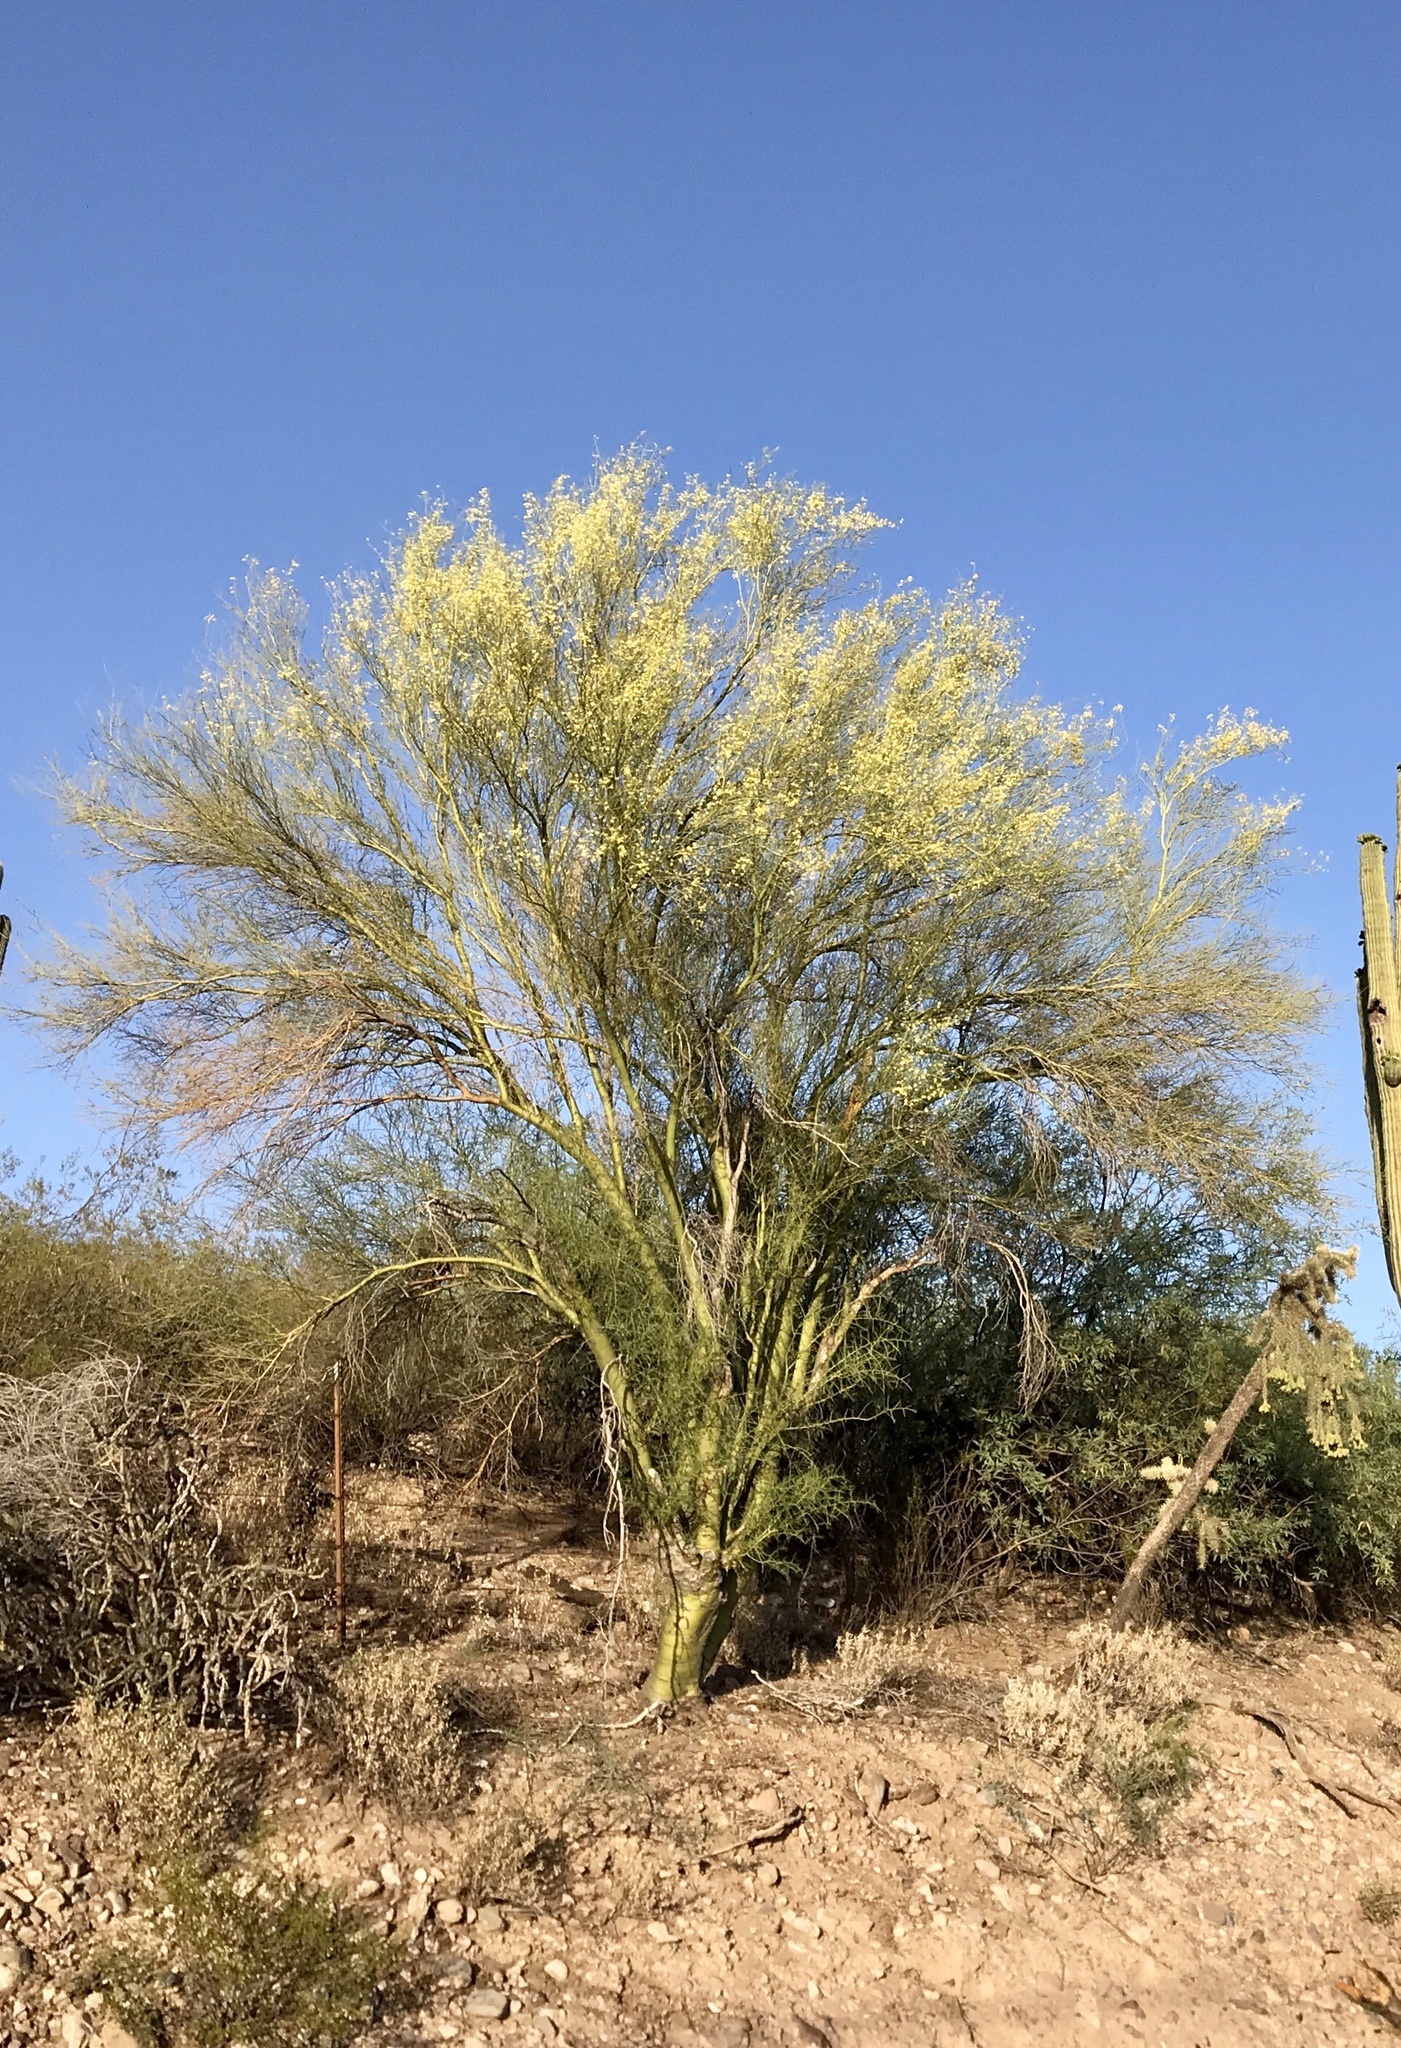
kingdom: Plantae
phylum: Tracheophyta
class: Magnoliopsida
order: Fabales
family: Fabaceae
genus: Parkinsonia
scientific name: Parkinsonia microphylla
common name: Yellow paloverde
